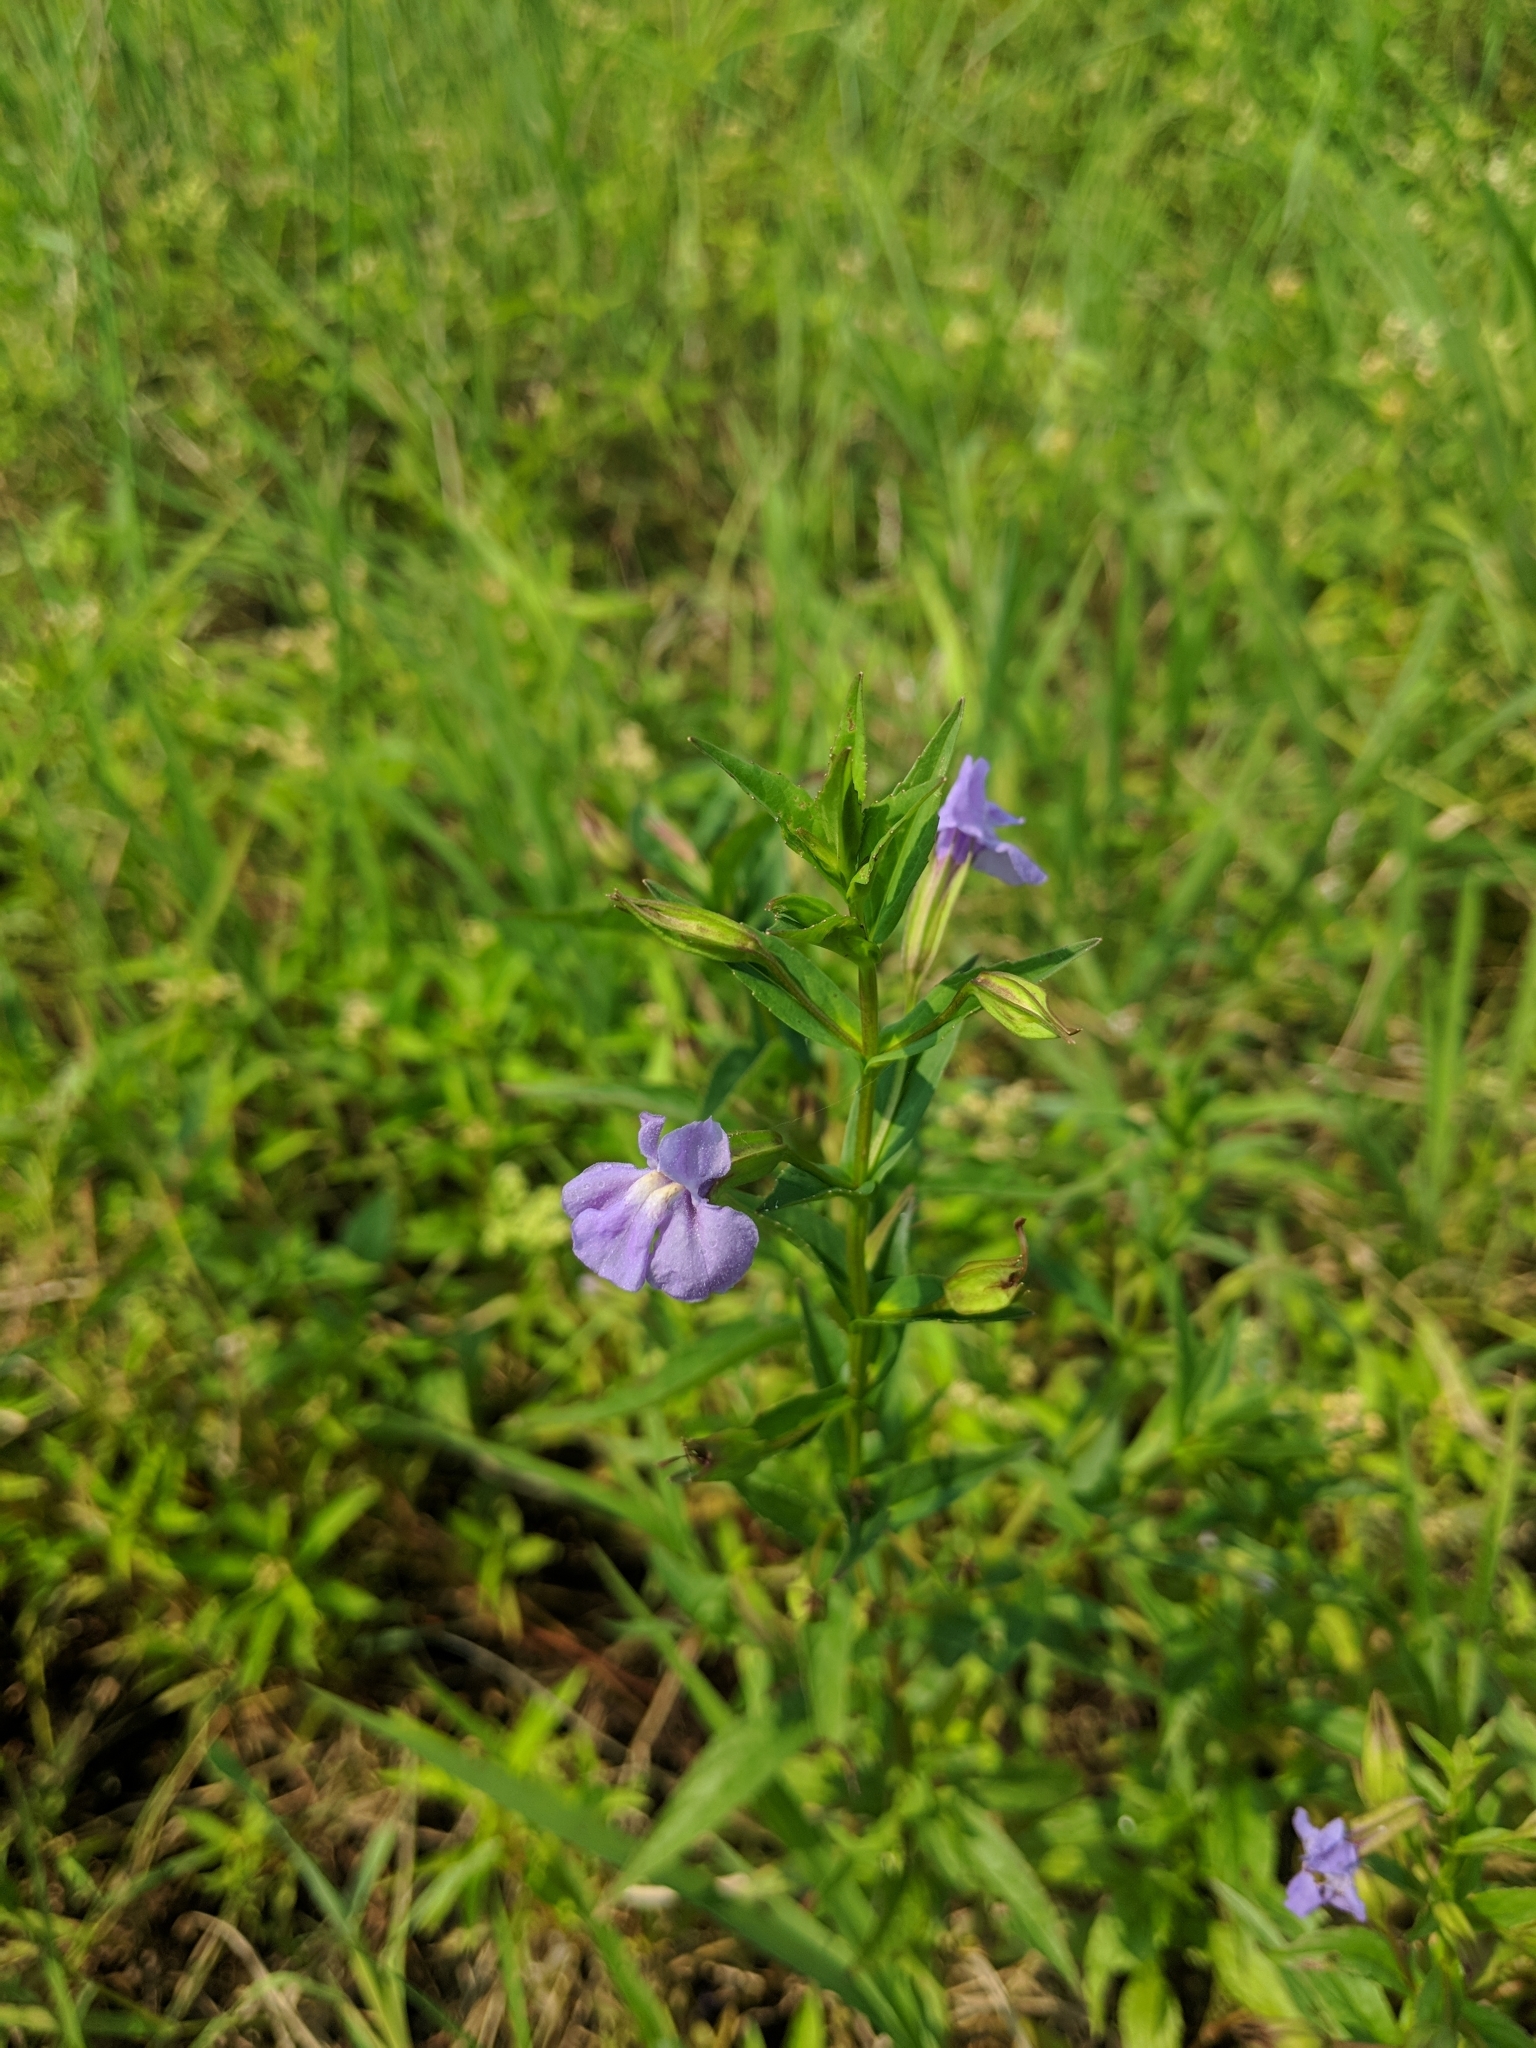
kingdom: Plantae
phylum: Tracheophyta
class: Magnoliopsida
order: Lamiales
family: Phrymaceae
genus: Mimulus
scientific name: Mimulus ringens
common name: Allegheny monkeyflower
